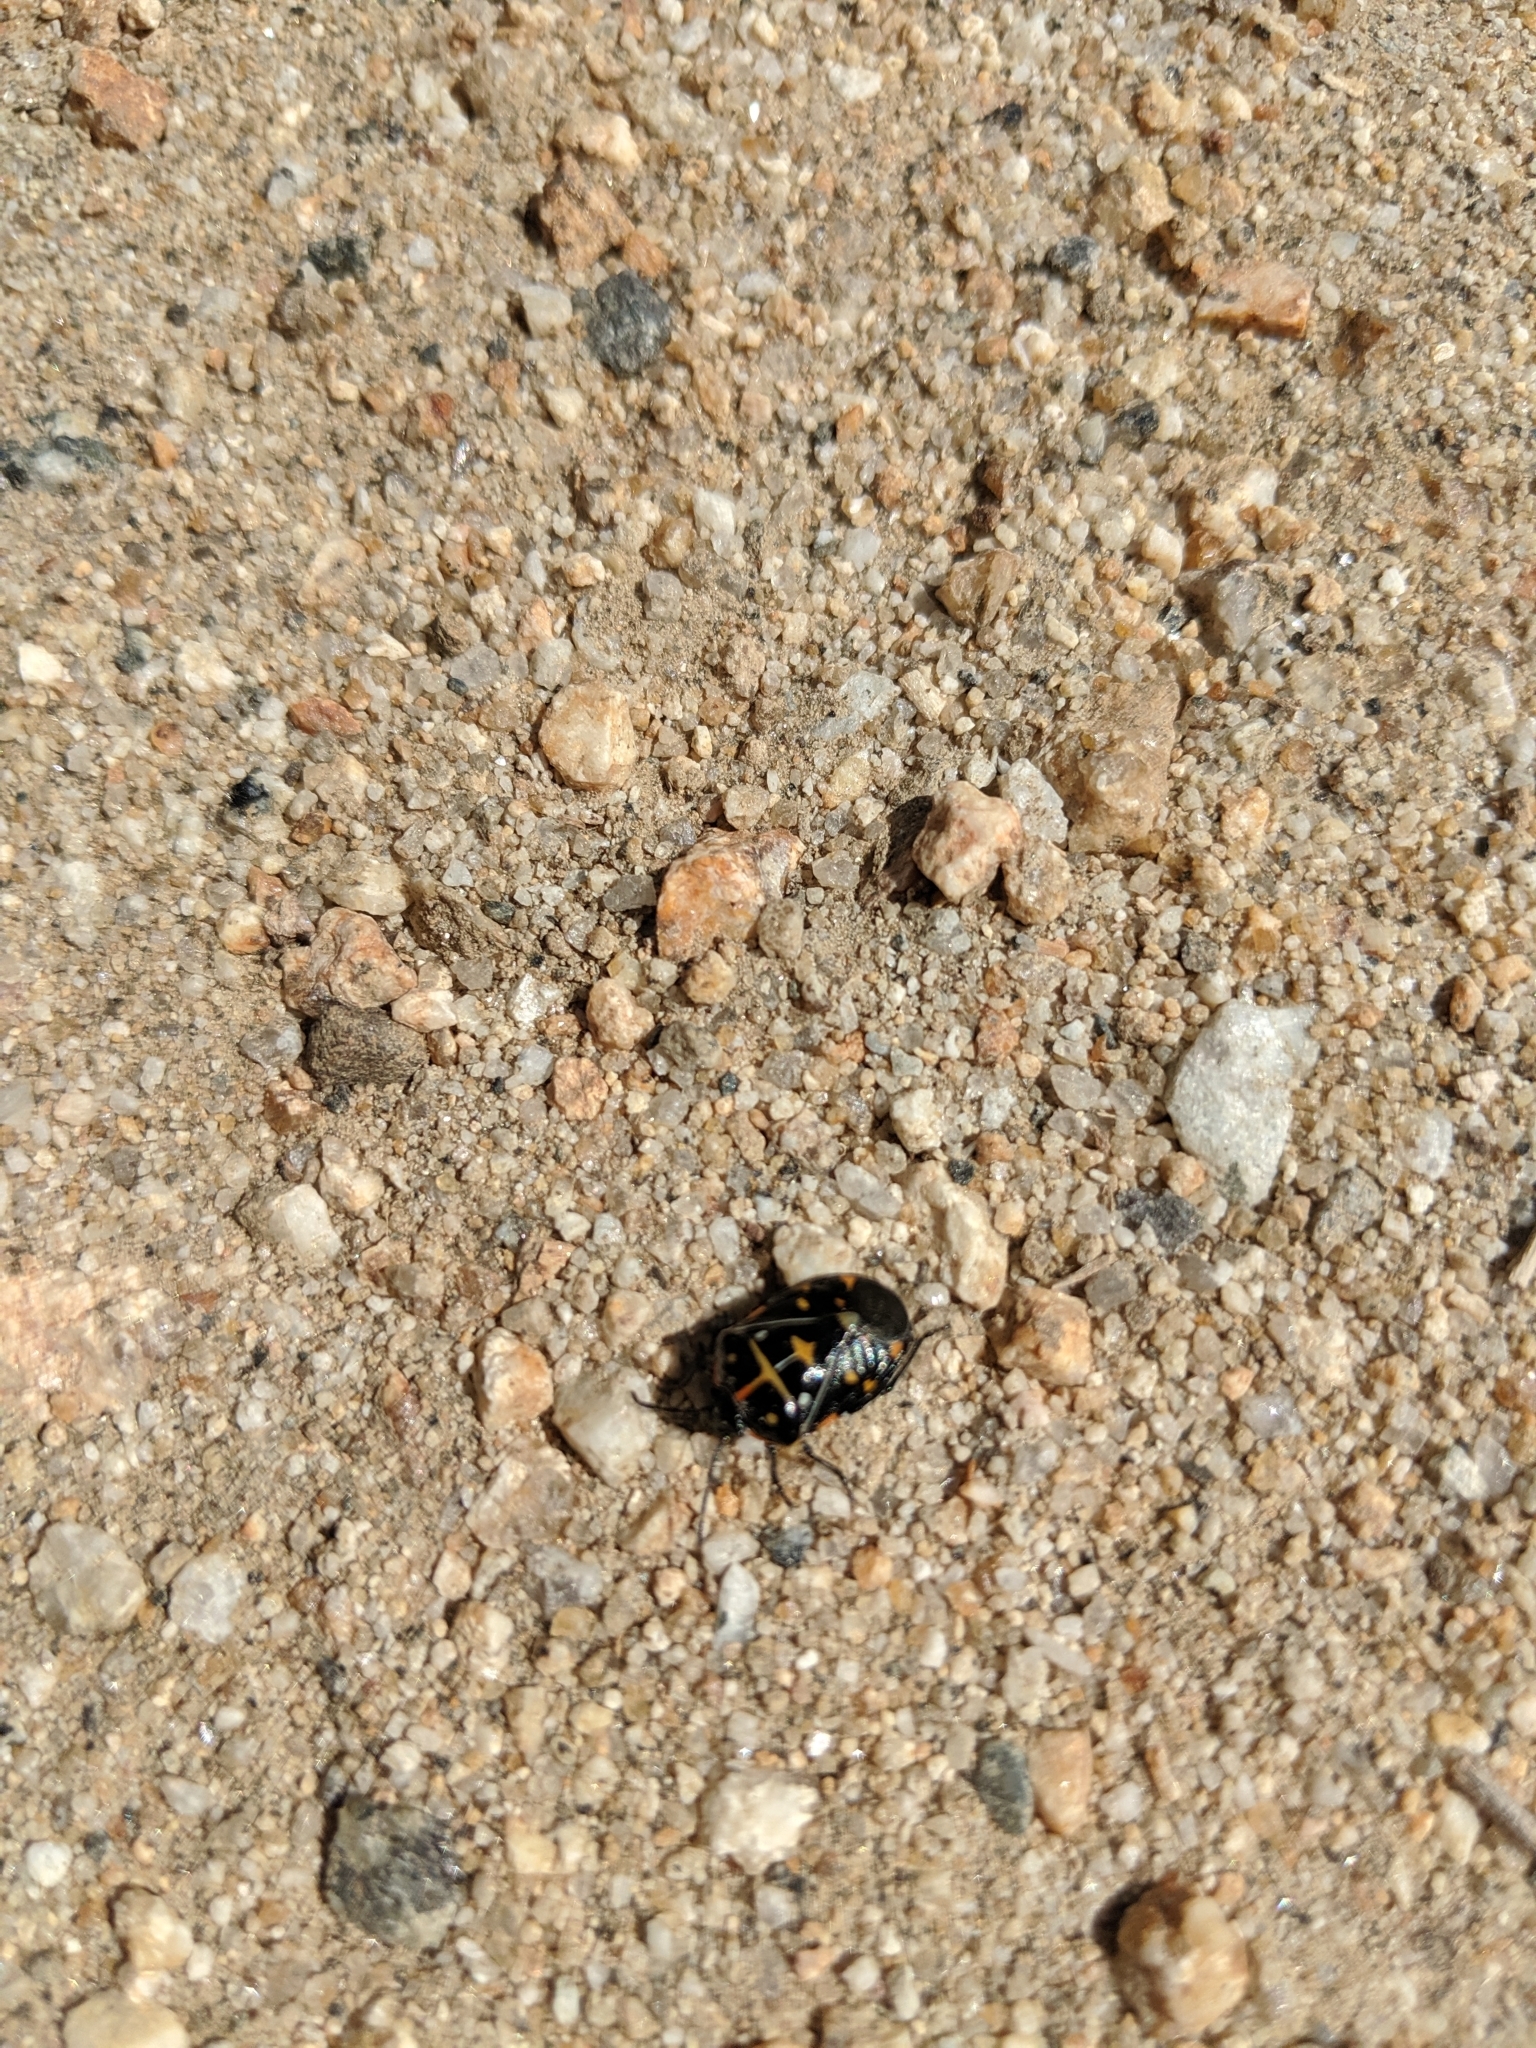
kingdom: Animalia
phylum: Arthropoda
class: Insecta
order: Hemiptera
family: Pentatomidae
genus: Murgantia
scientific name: Murgantia histrionica
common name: Harlequin bug
